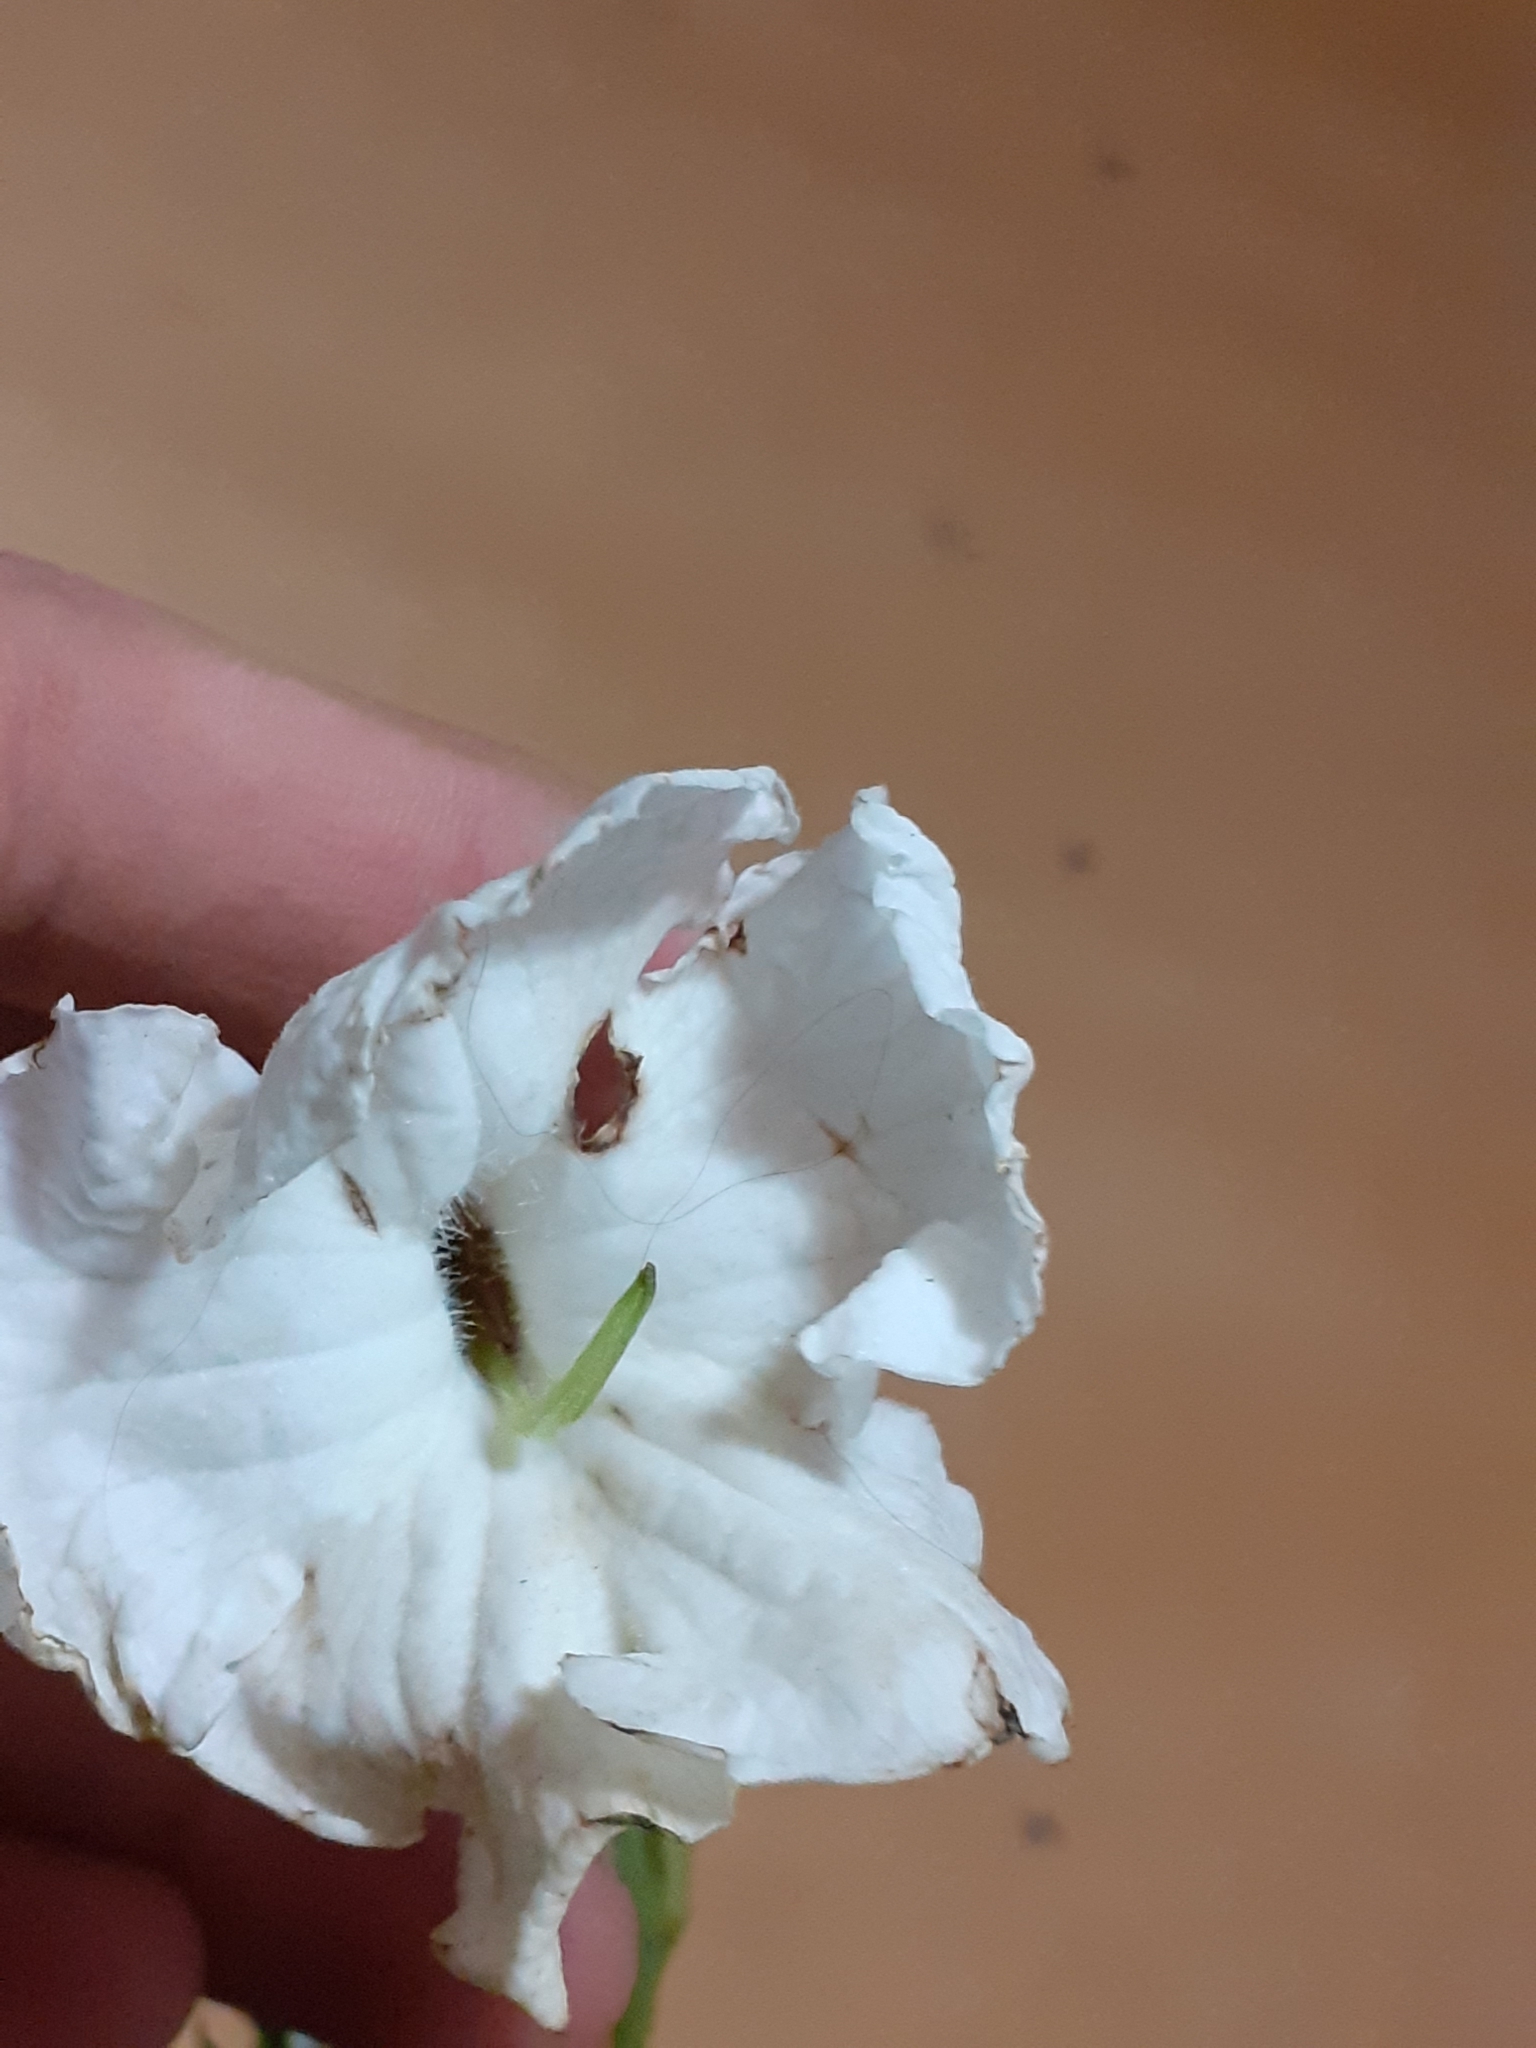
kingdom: Plantae
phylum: Tracheophyta
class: Magnoliopsida
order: Lamiales
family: Orobanchaceae
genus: Escobedia
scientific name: Escobedia grandiflora
